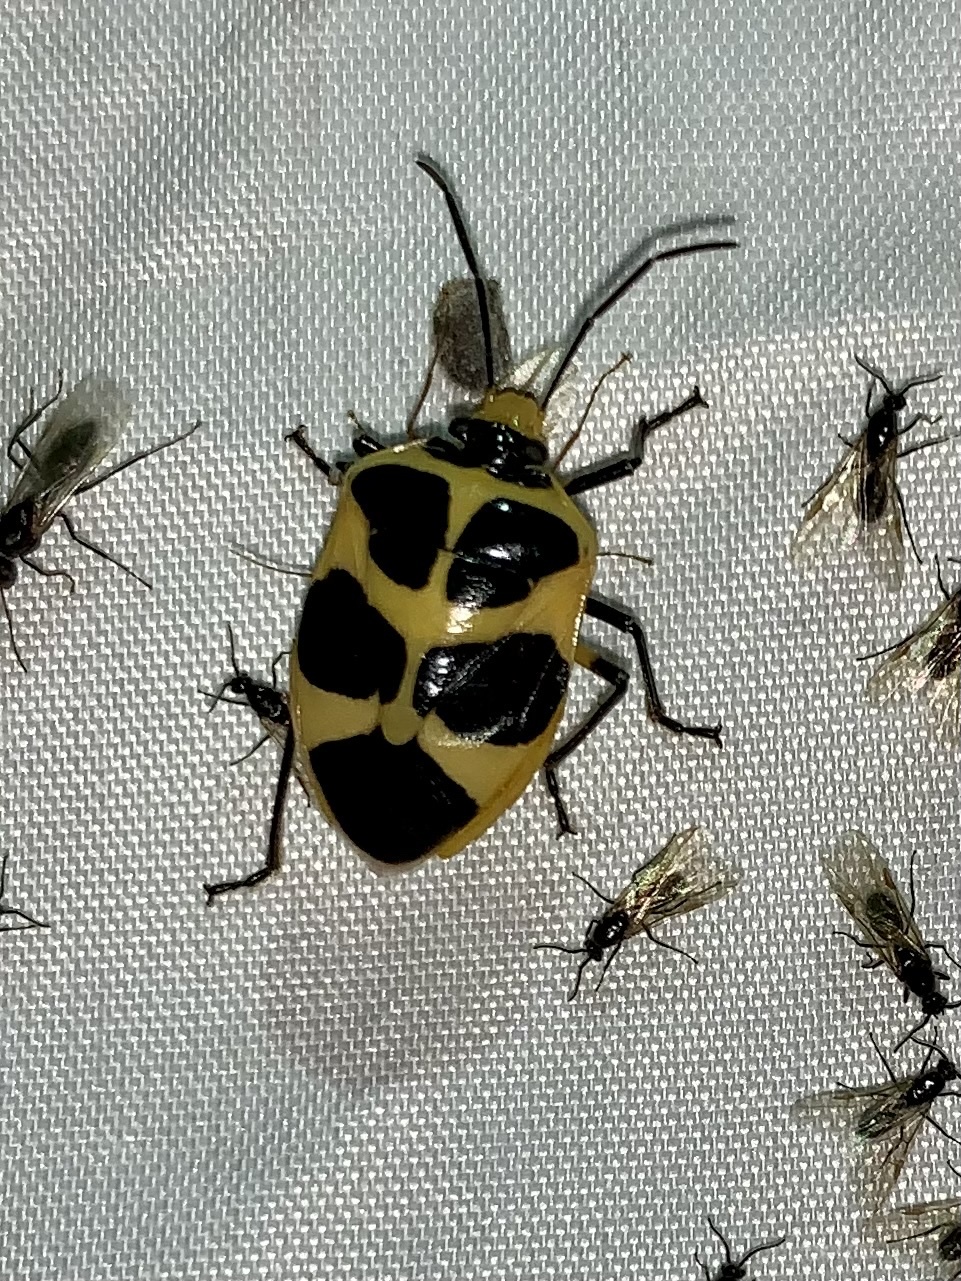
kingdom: Animalia
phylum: Arthropoda
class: Insecta
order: Hemiptera
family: Pentatomidae
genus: Arocera
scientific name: Arocera apta
